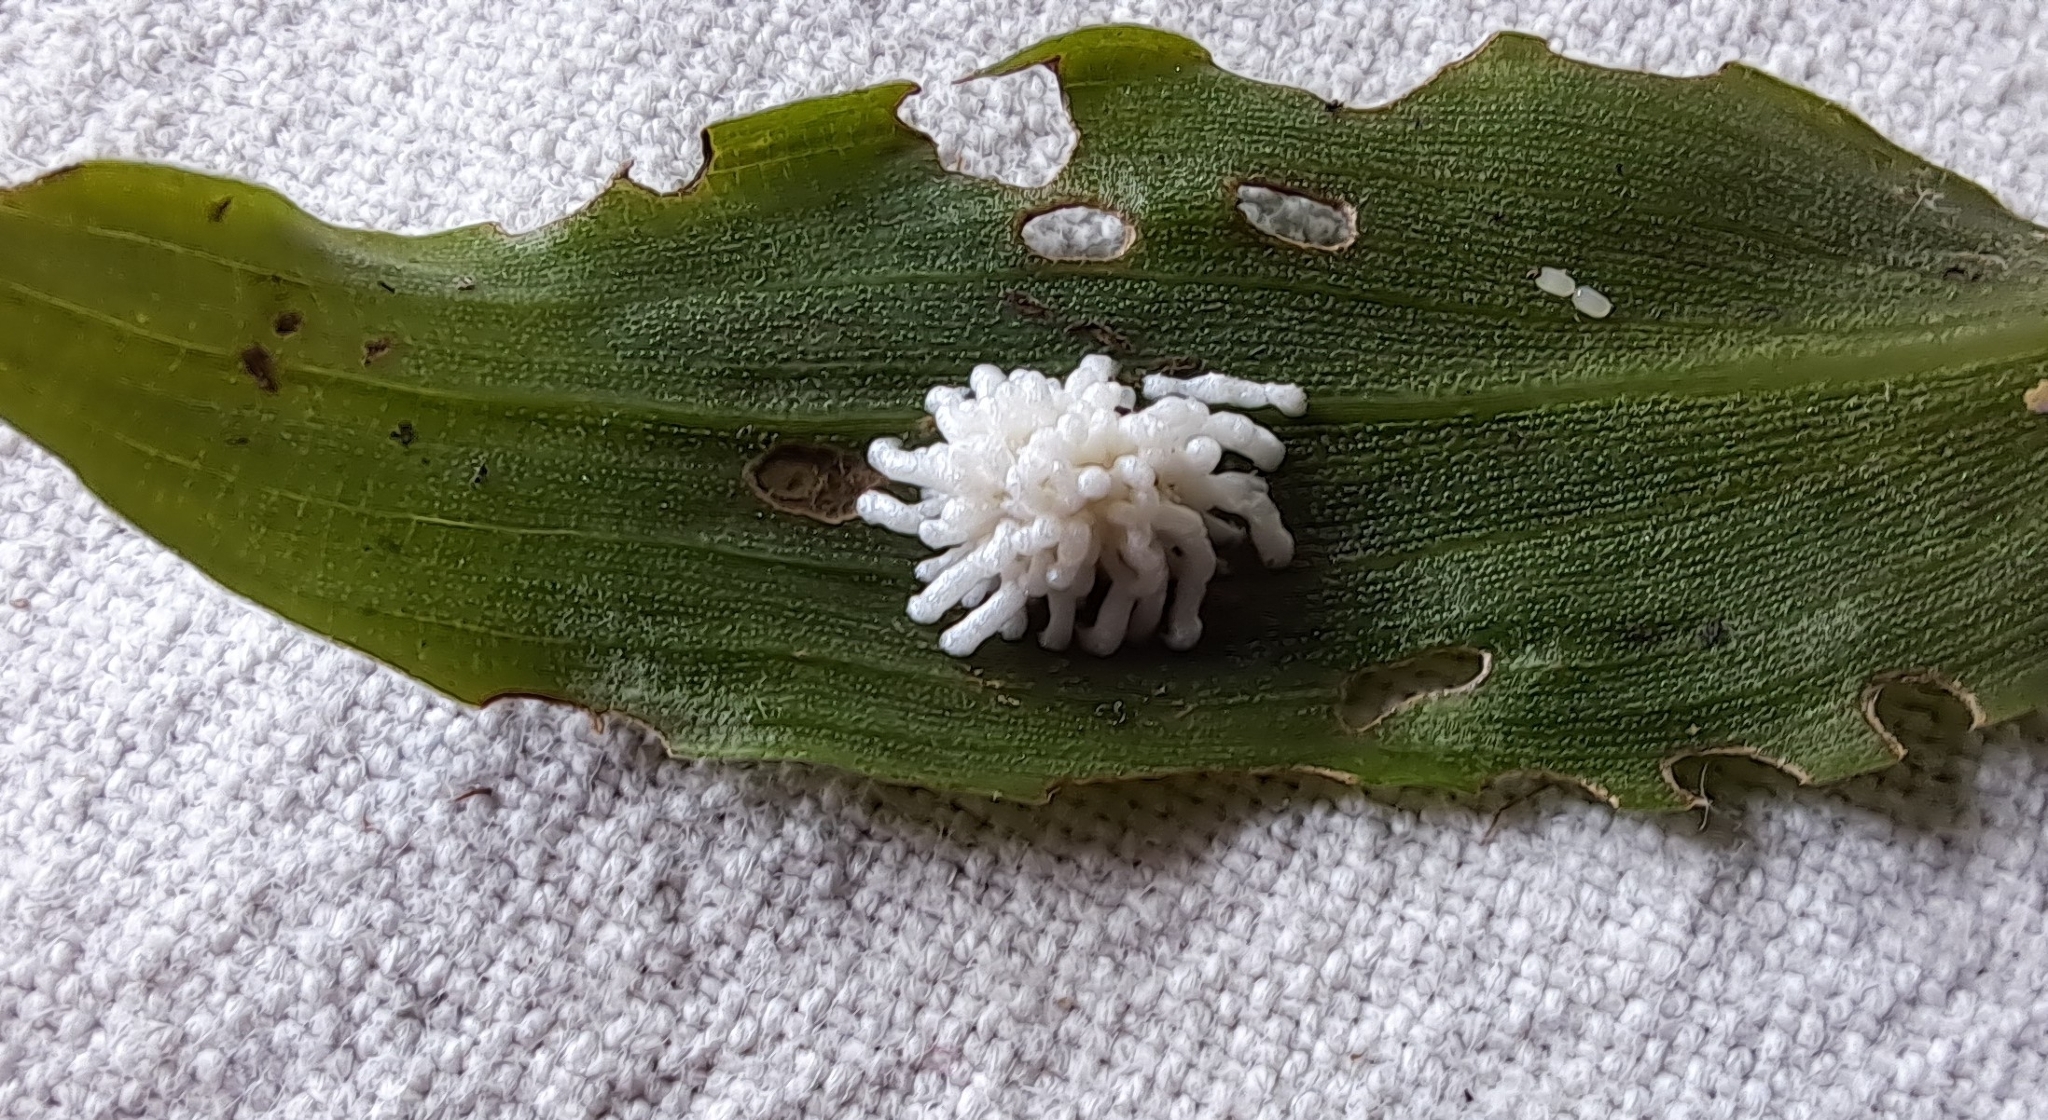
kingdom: Animalia
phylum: Arthropoda
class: Insecta
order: Coleoptera
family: Chrysomelidae
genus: Neolema
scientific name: Neolema ogloblini
